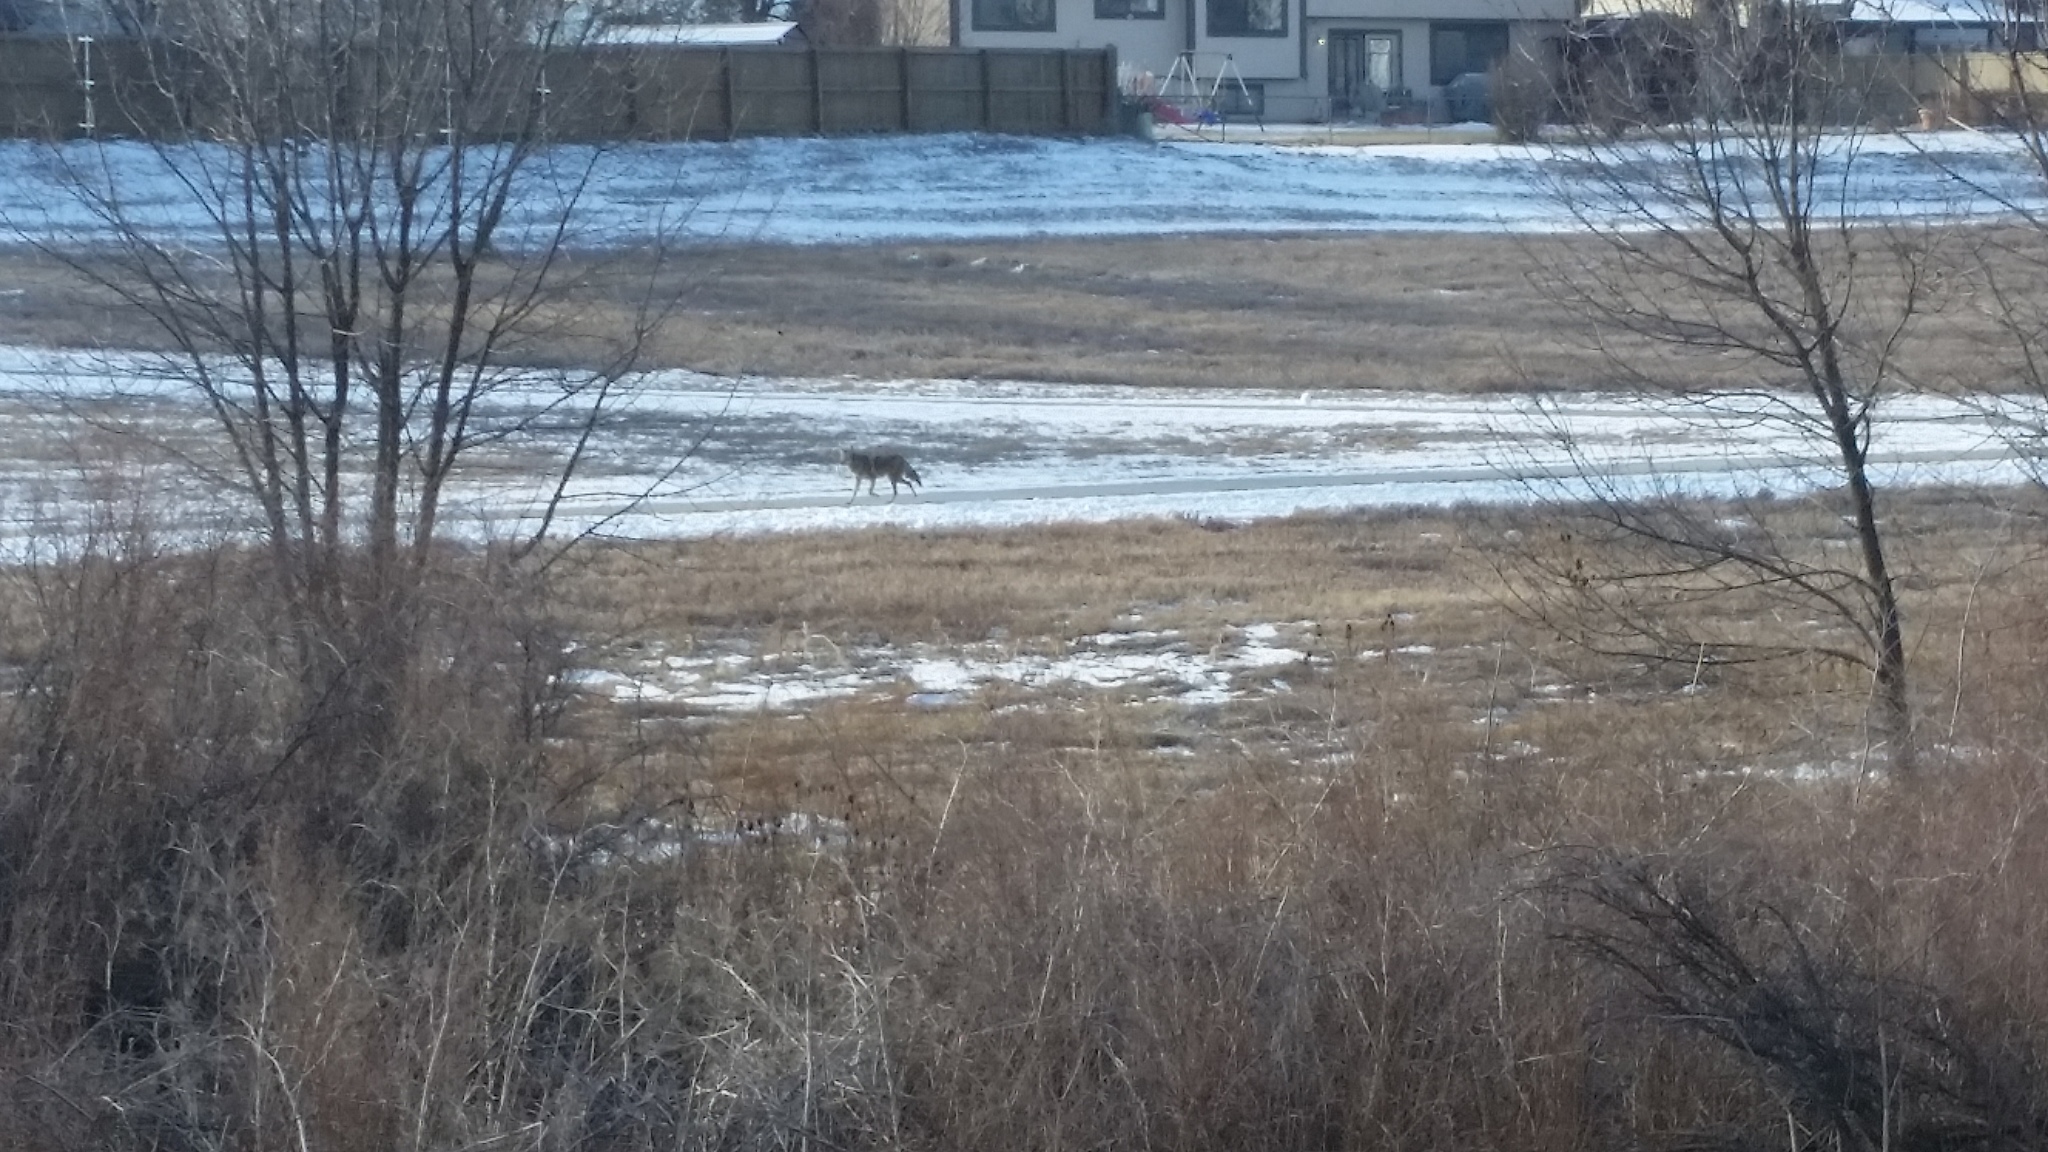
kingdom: Animalia
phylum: Chordata
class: Mammalia
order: Carnivora
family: Canidae
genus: Canis
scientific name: Canis latrans
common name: Coyote
